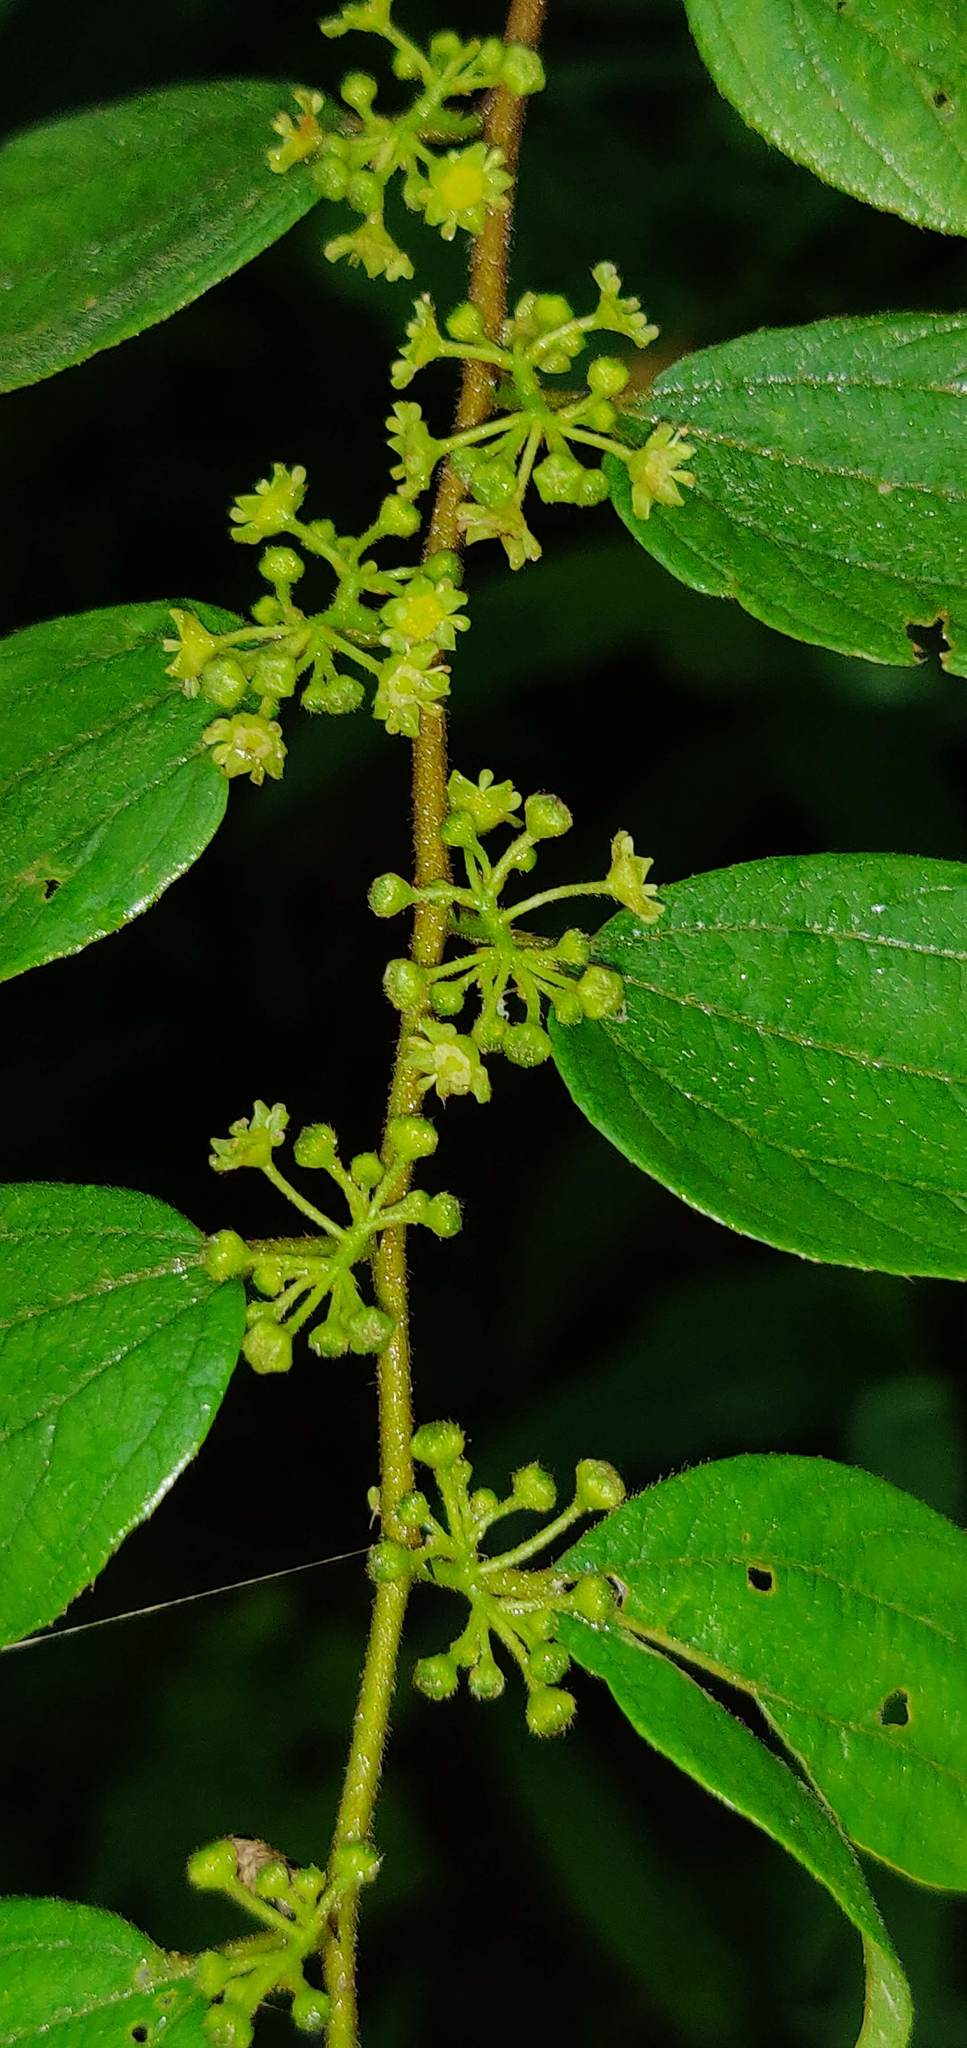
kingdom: Plantae
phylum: Tracheophyta
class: Magnoliopsida
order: Rosales
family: Rhamnaceae
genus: Ziziphus
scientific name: Ziziphus oenopolia
